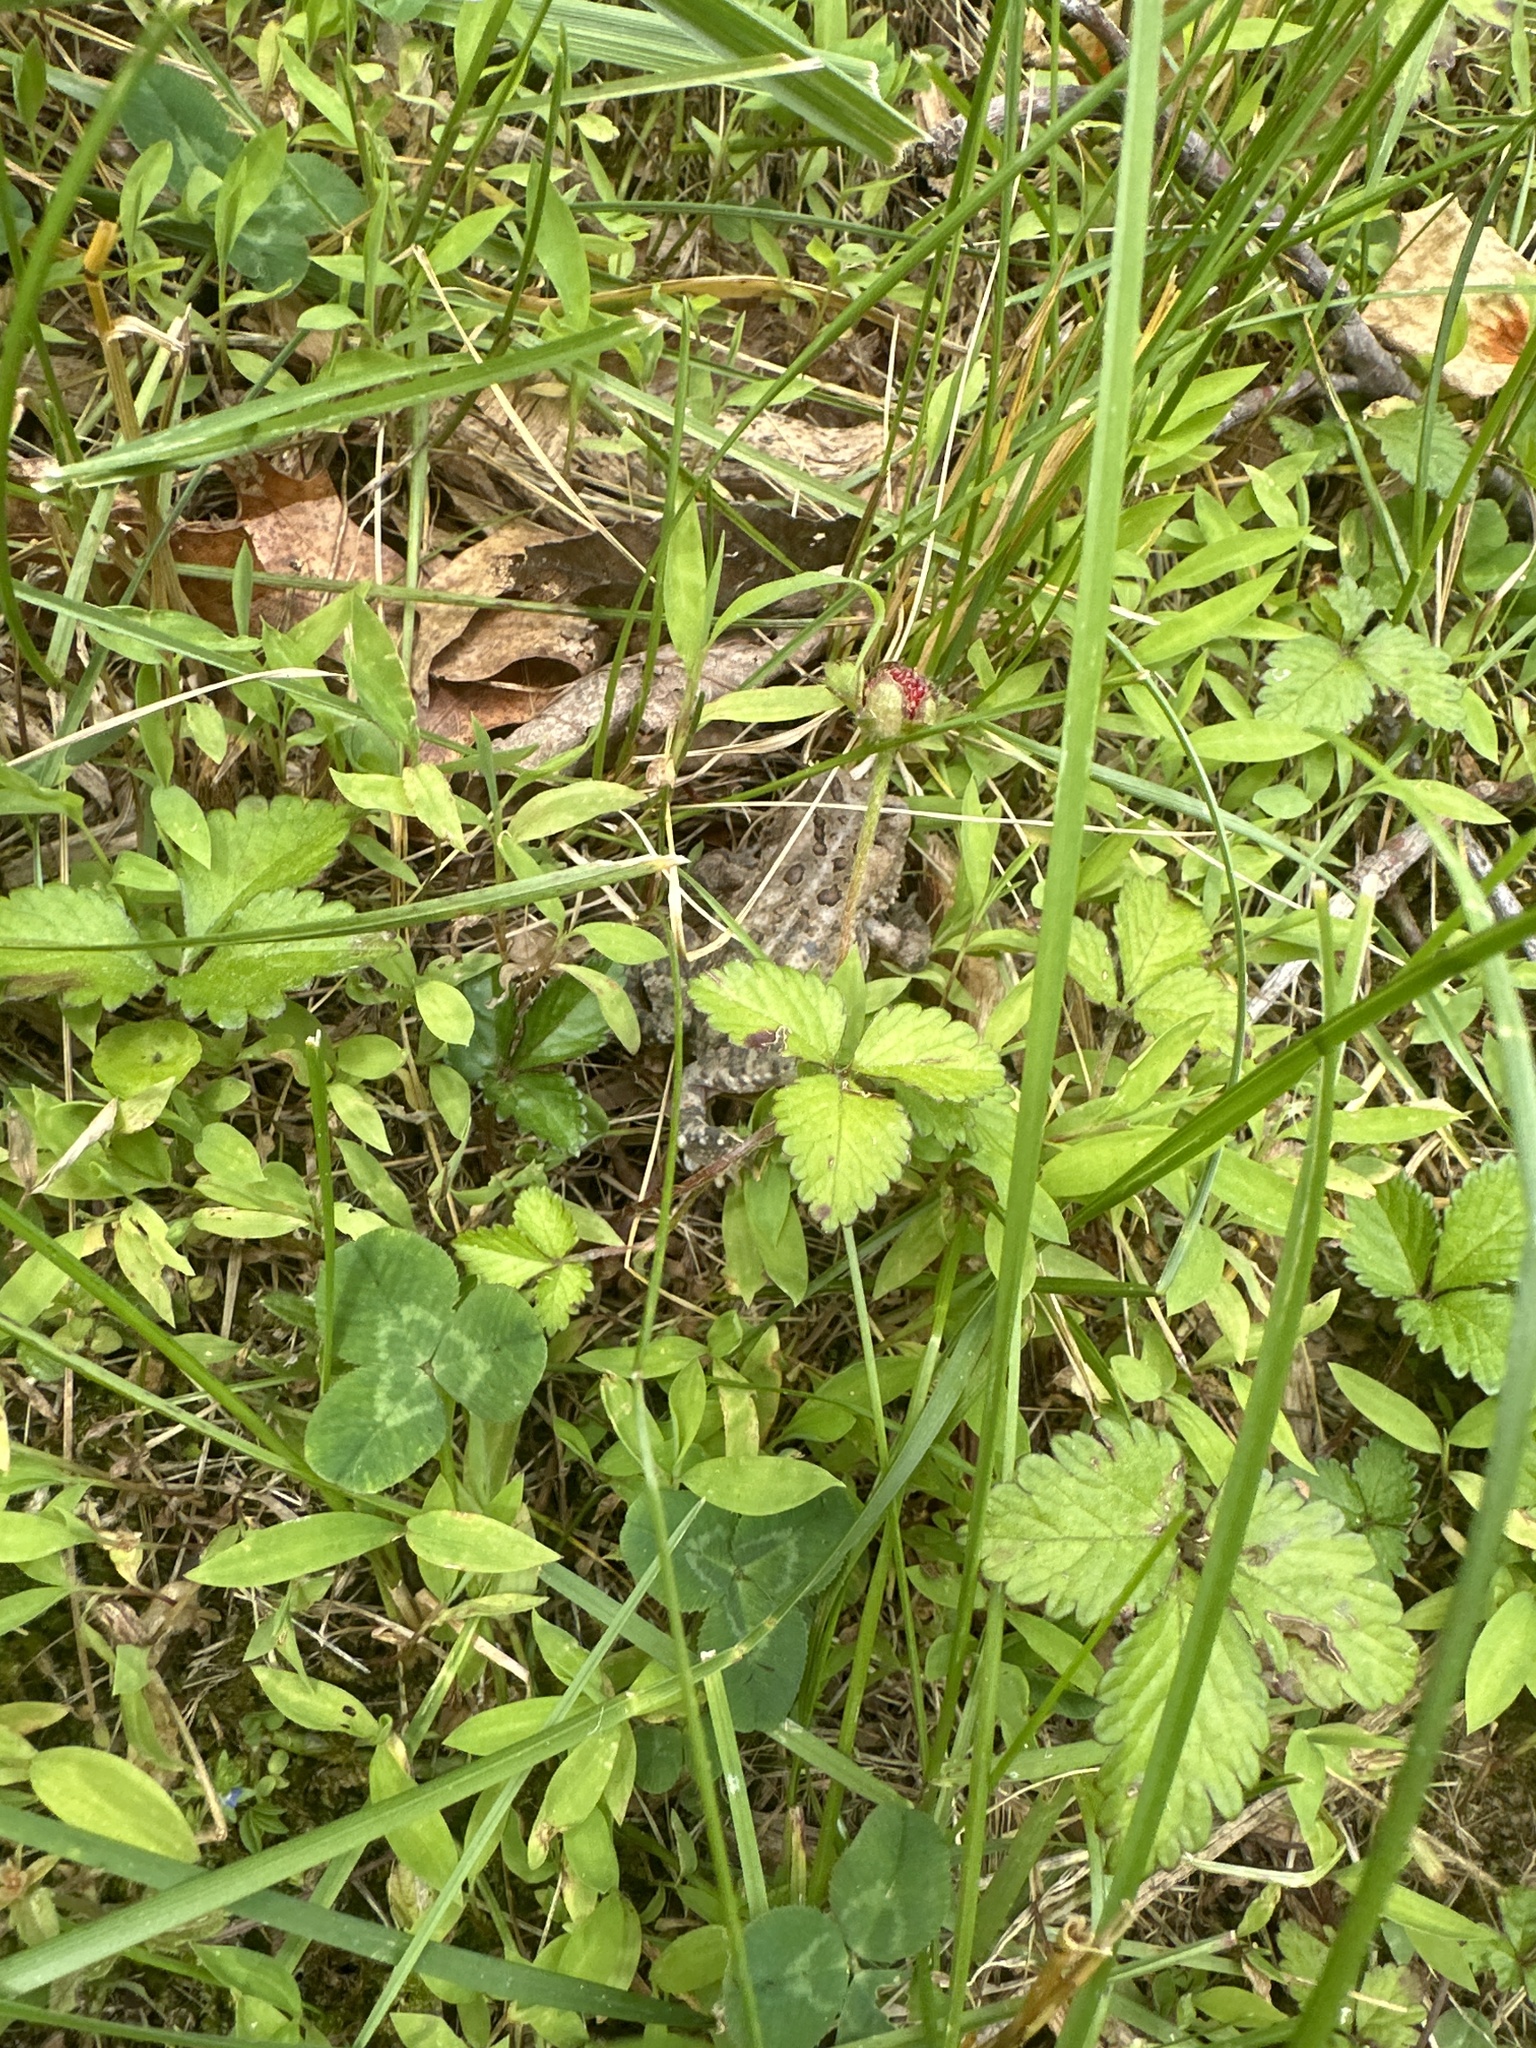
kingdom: Animalia
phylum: Chordata
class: Amphibia
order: Anura
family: Bufonidae
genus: Anaxyrus
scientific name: Anaxyrus americanus
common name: American toad
